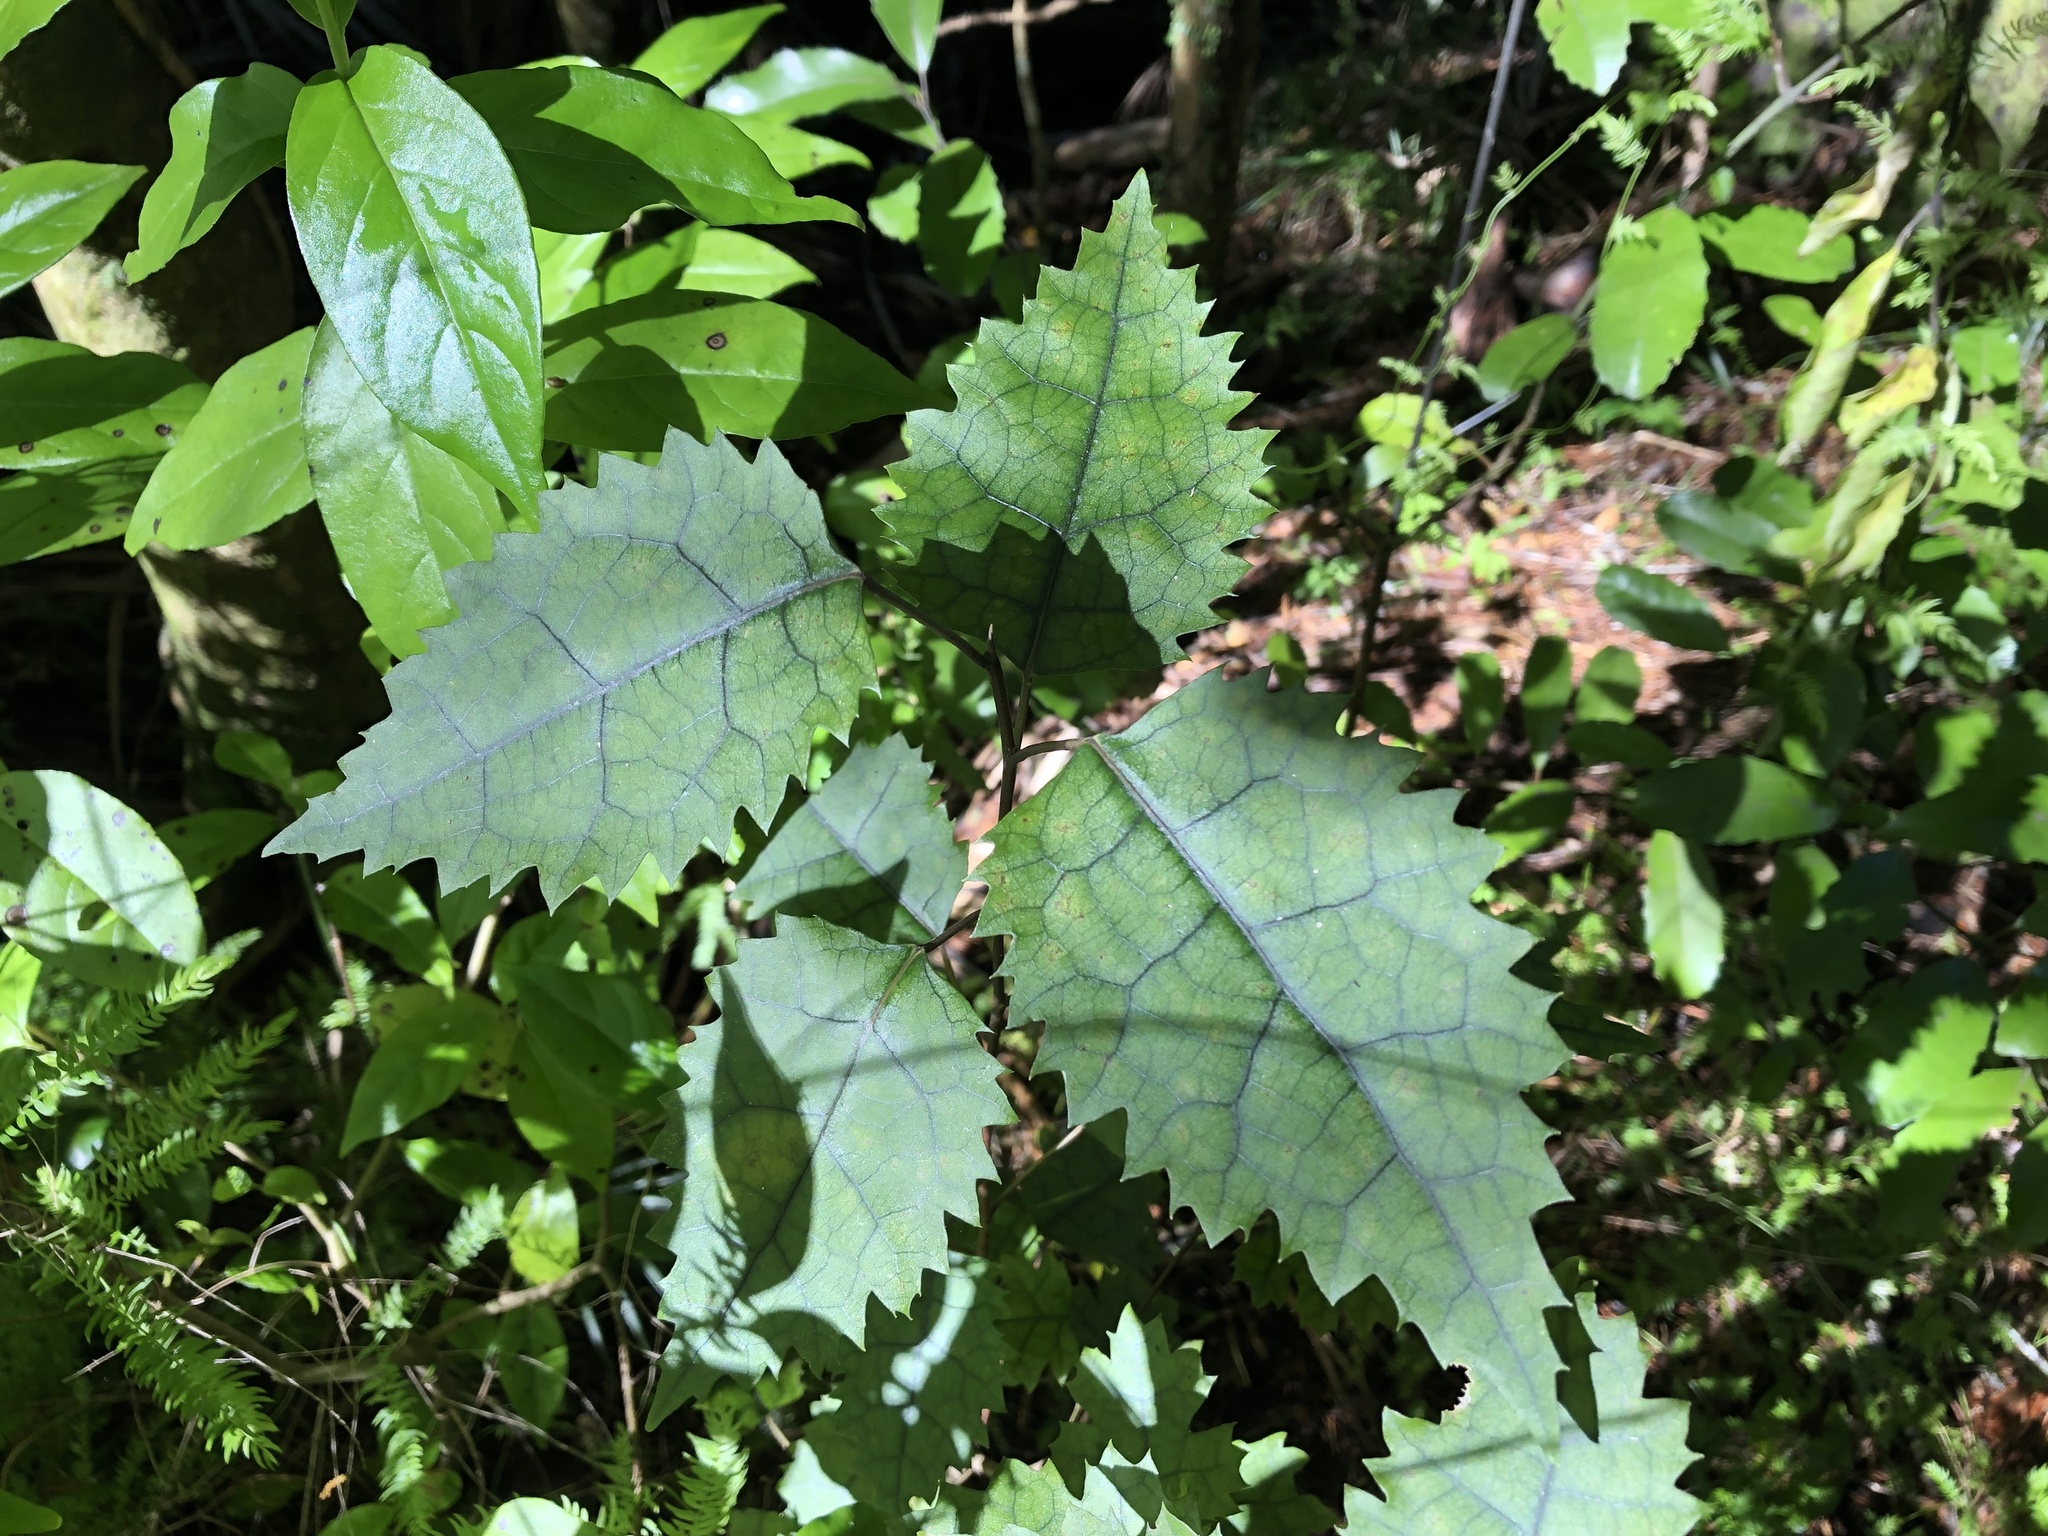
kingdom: Plantae
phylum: Tracheophyta
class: Magnoliopsida
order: Malvales
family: Malvaceae
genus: Hoheria
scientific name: Hoheria populnea
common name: Lacebark
